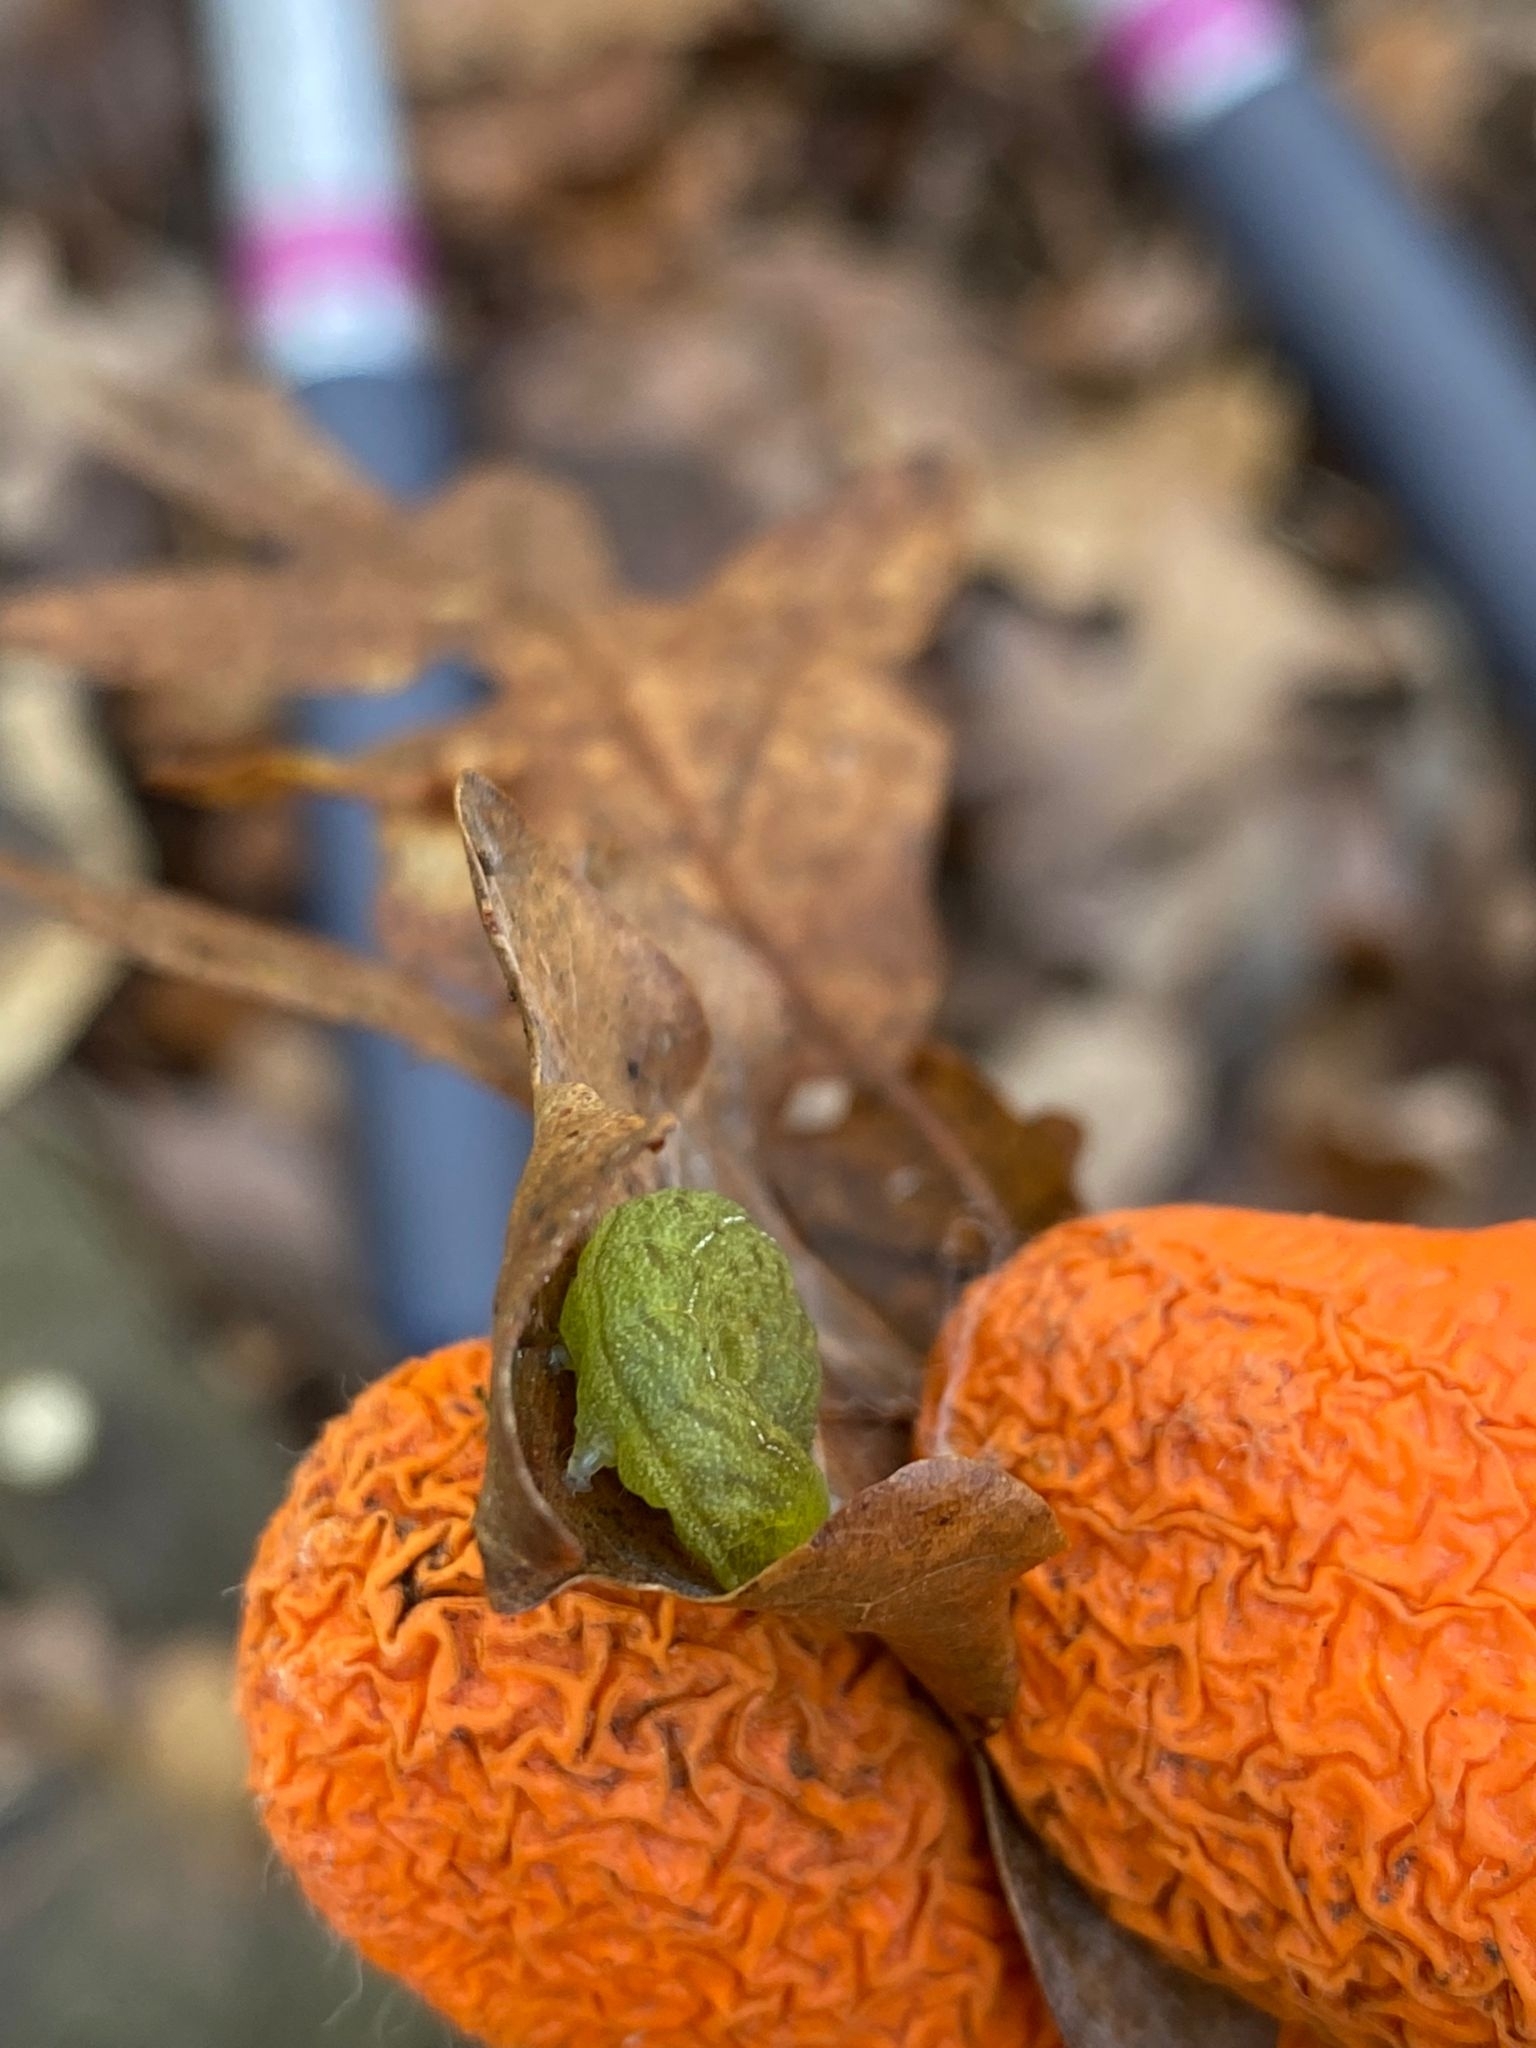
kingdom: Animalia
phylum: Arthropoda
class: Insecta
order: Lepidoptera
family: Noctuidae
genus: Phlogophora
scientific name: Phlogophora meticulosa
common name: Angle shades
